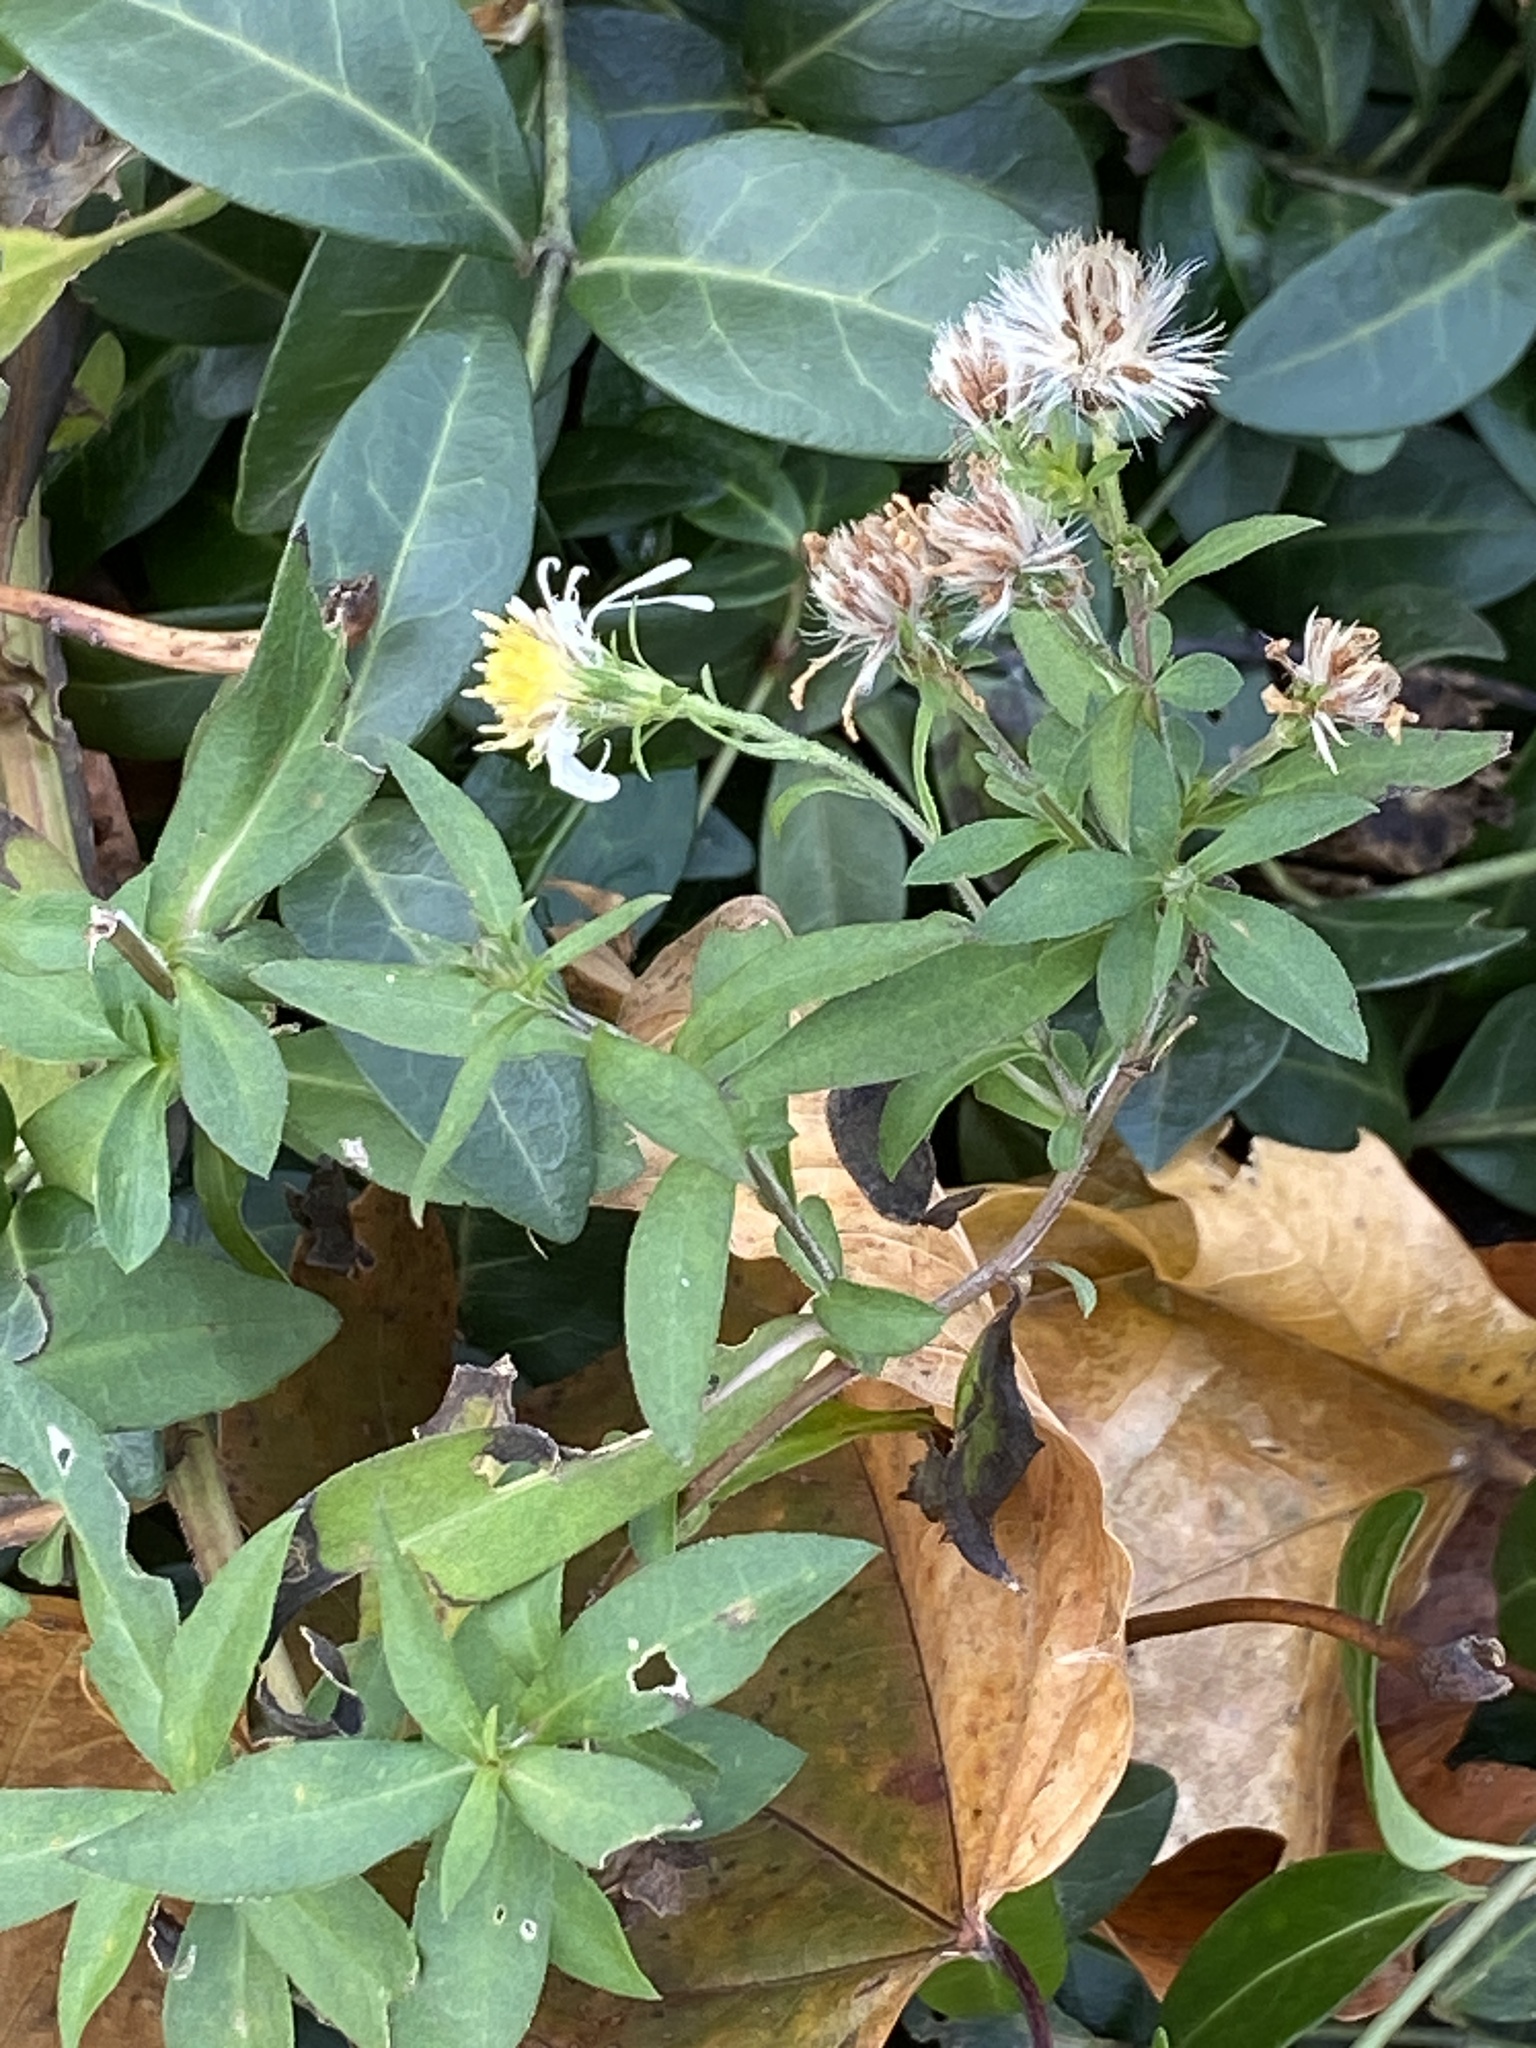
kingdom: Plantae
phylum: Tracheophyta
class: Magnoliopsida
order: Asterales
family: Asteraceae
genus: Symphyotrichum
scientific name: Symphyotrichum lanceolatum
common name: Panicled aster
